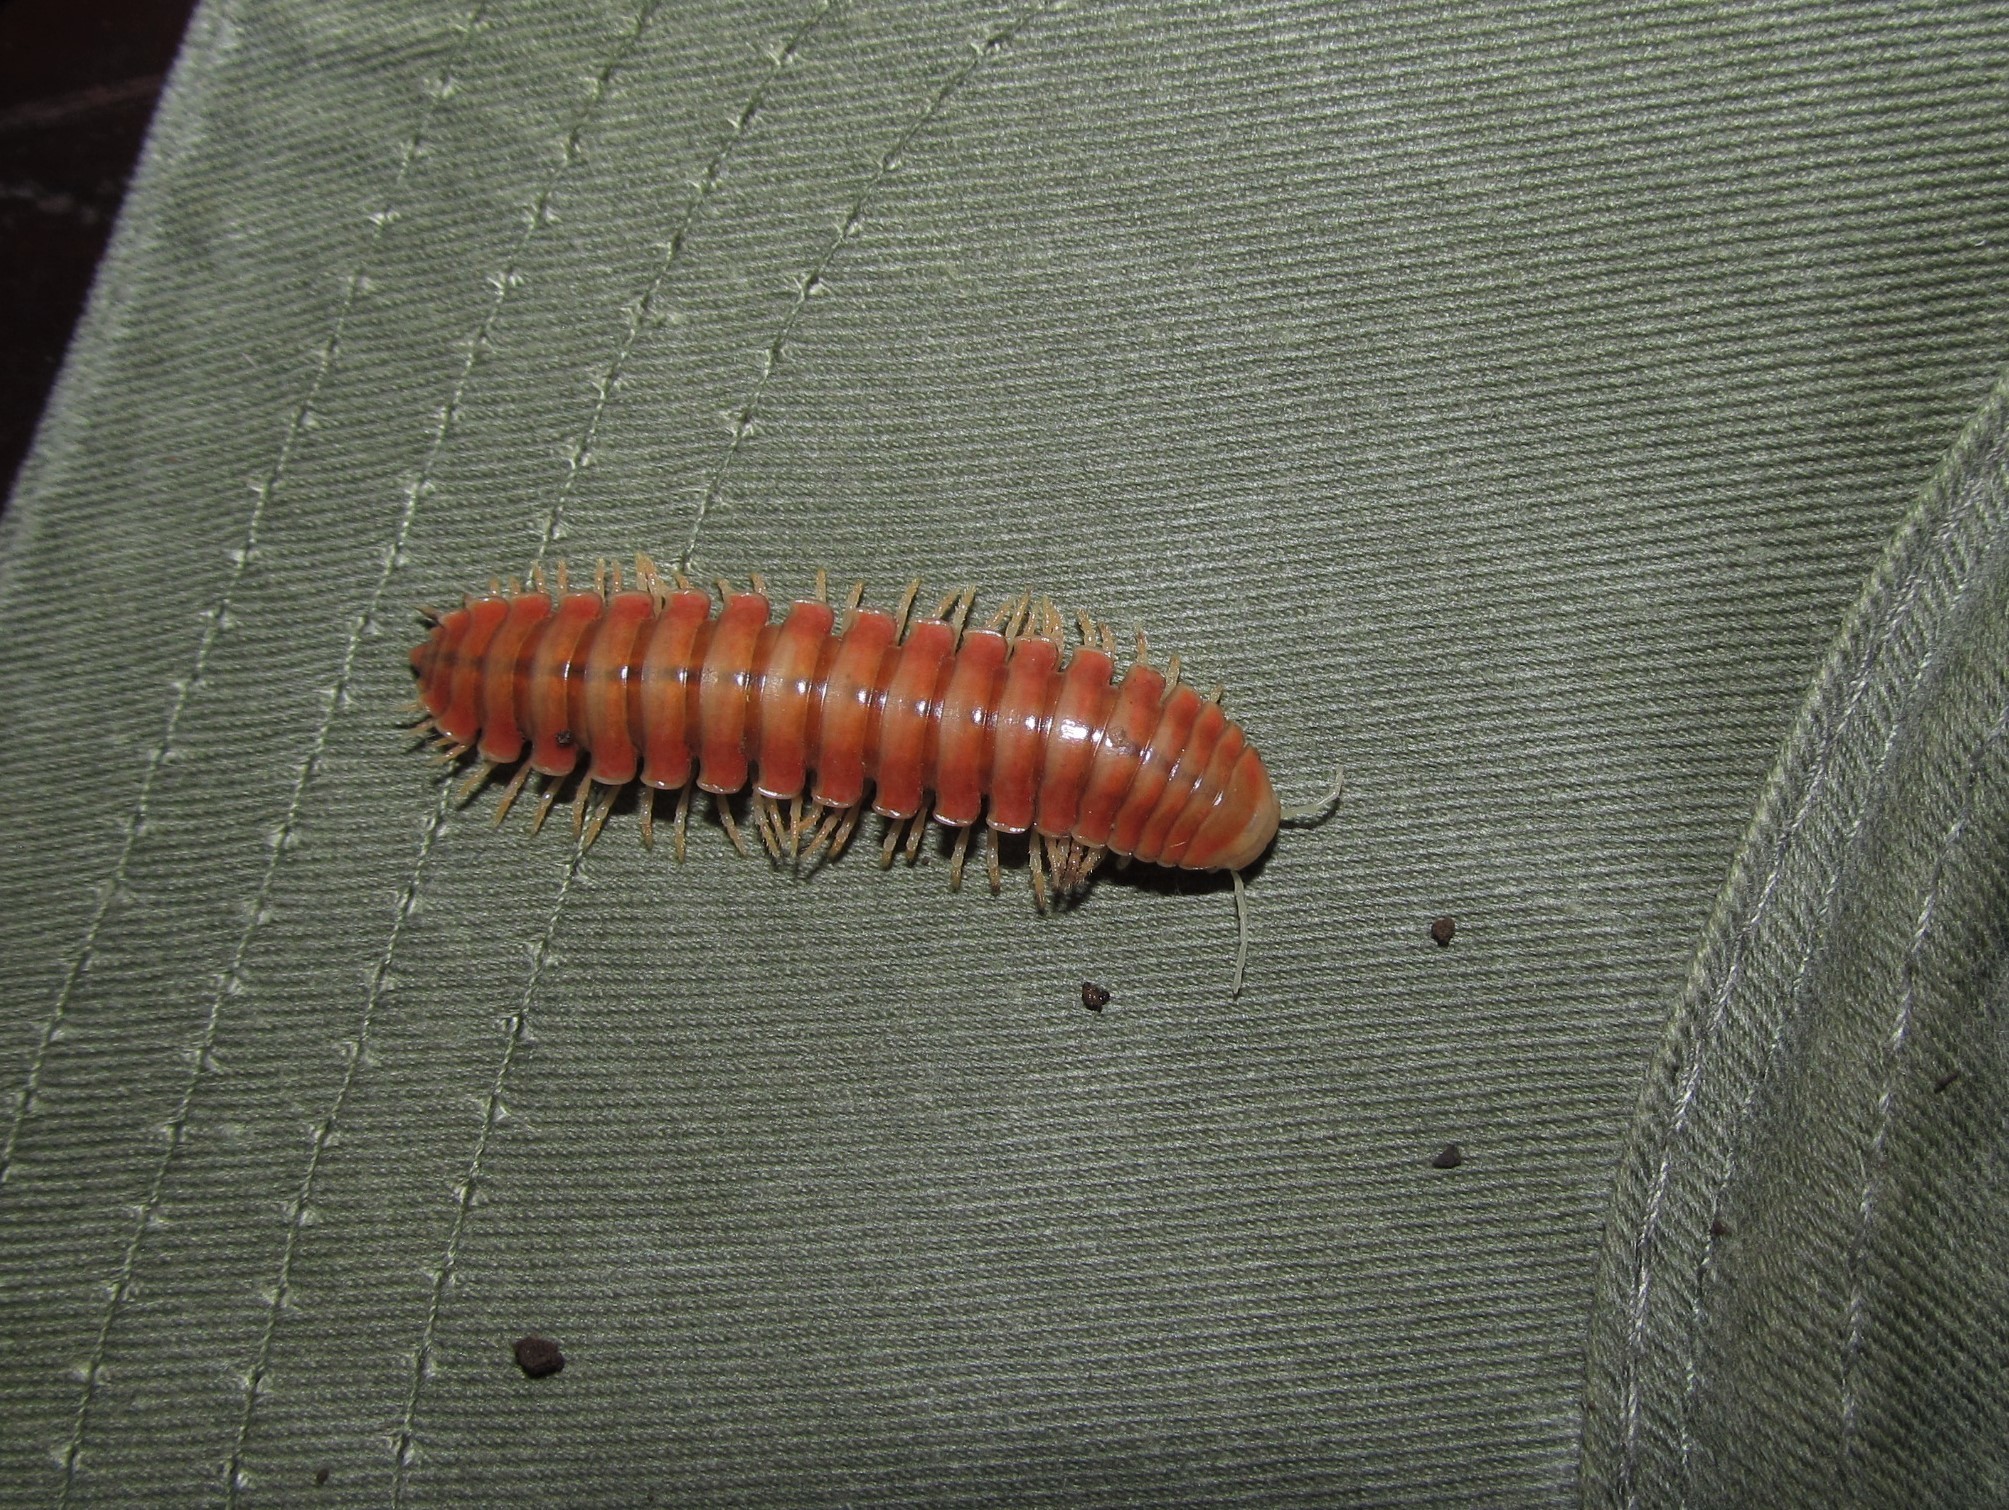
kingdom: Animalia
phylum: Arthropoda
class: Diplopoda
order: Polydesmida
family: Xystodesmidae
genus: Rhysodesmus
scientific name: Rhysodesmus zapotecus
